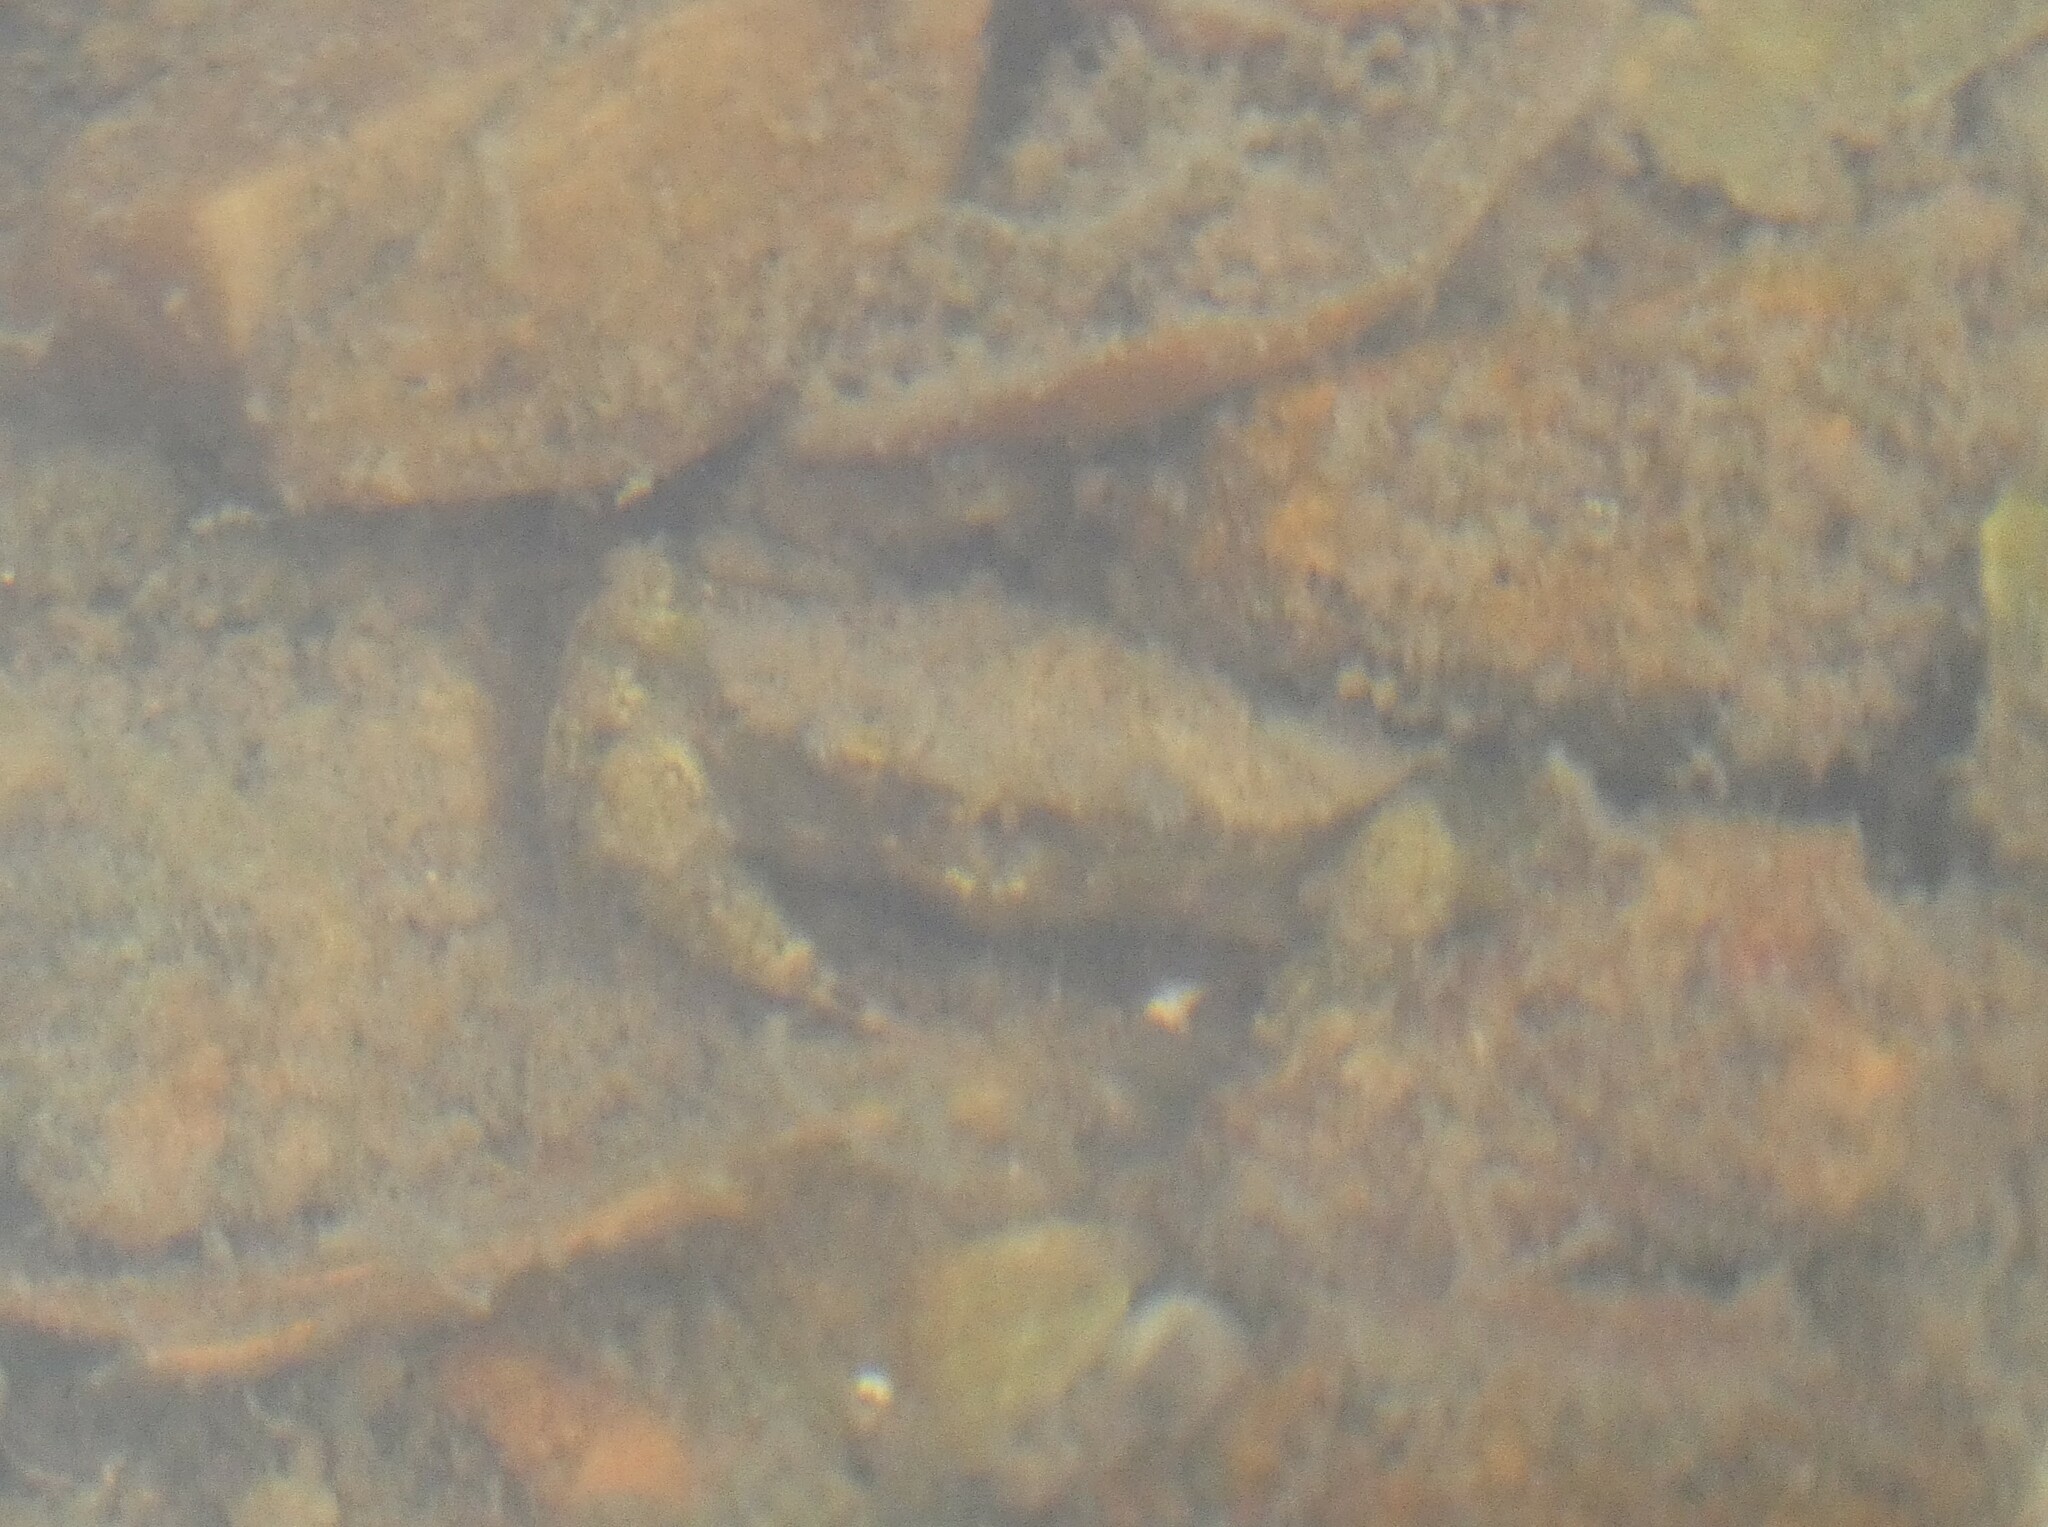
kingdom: Animalia
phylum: Arthropoda
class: Malacostraca
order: Decapoda
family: Carcinidae
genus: Carcinus
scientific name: Carcinus maenas
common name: European green crab
